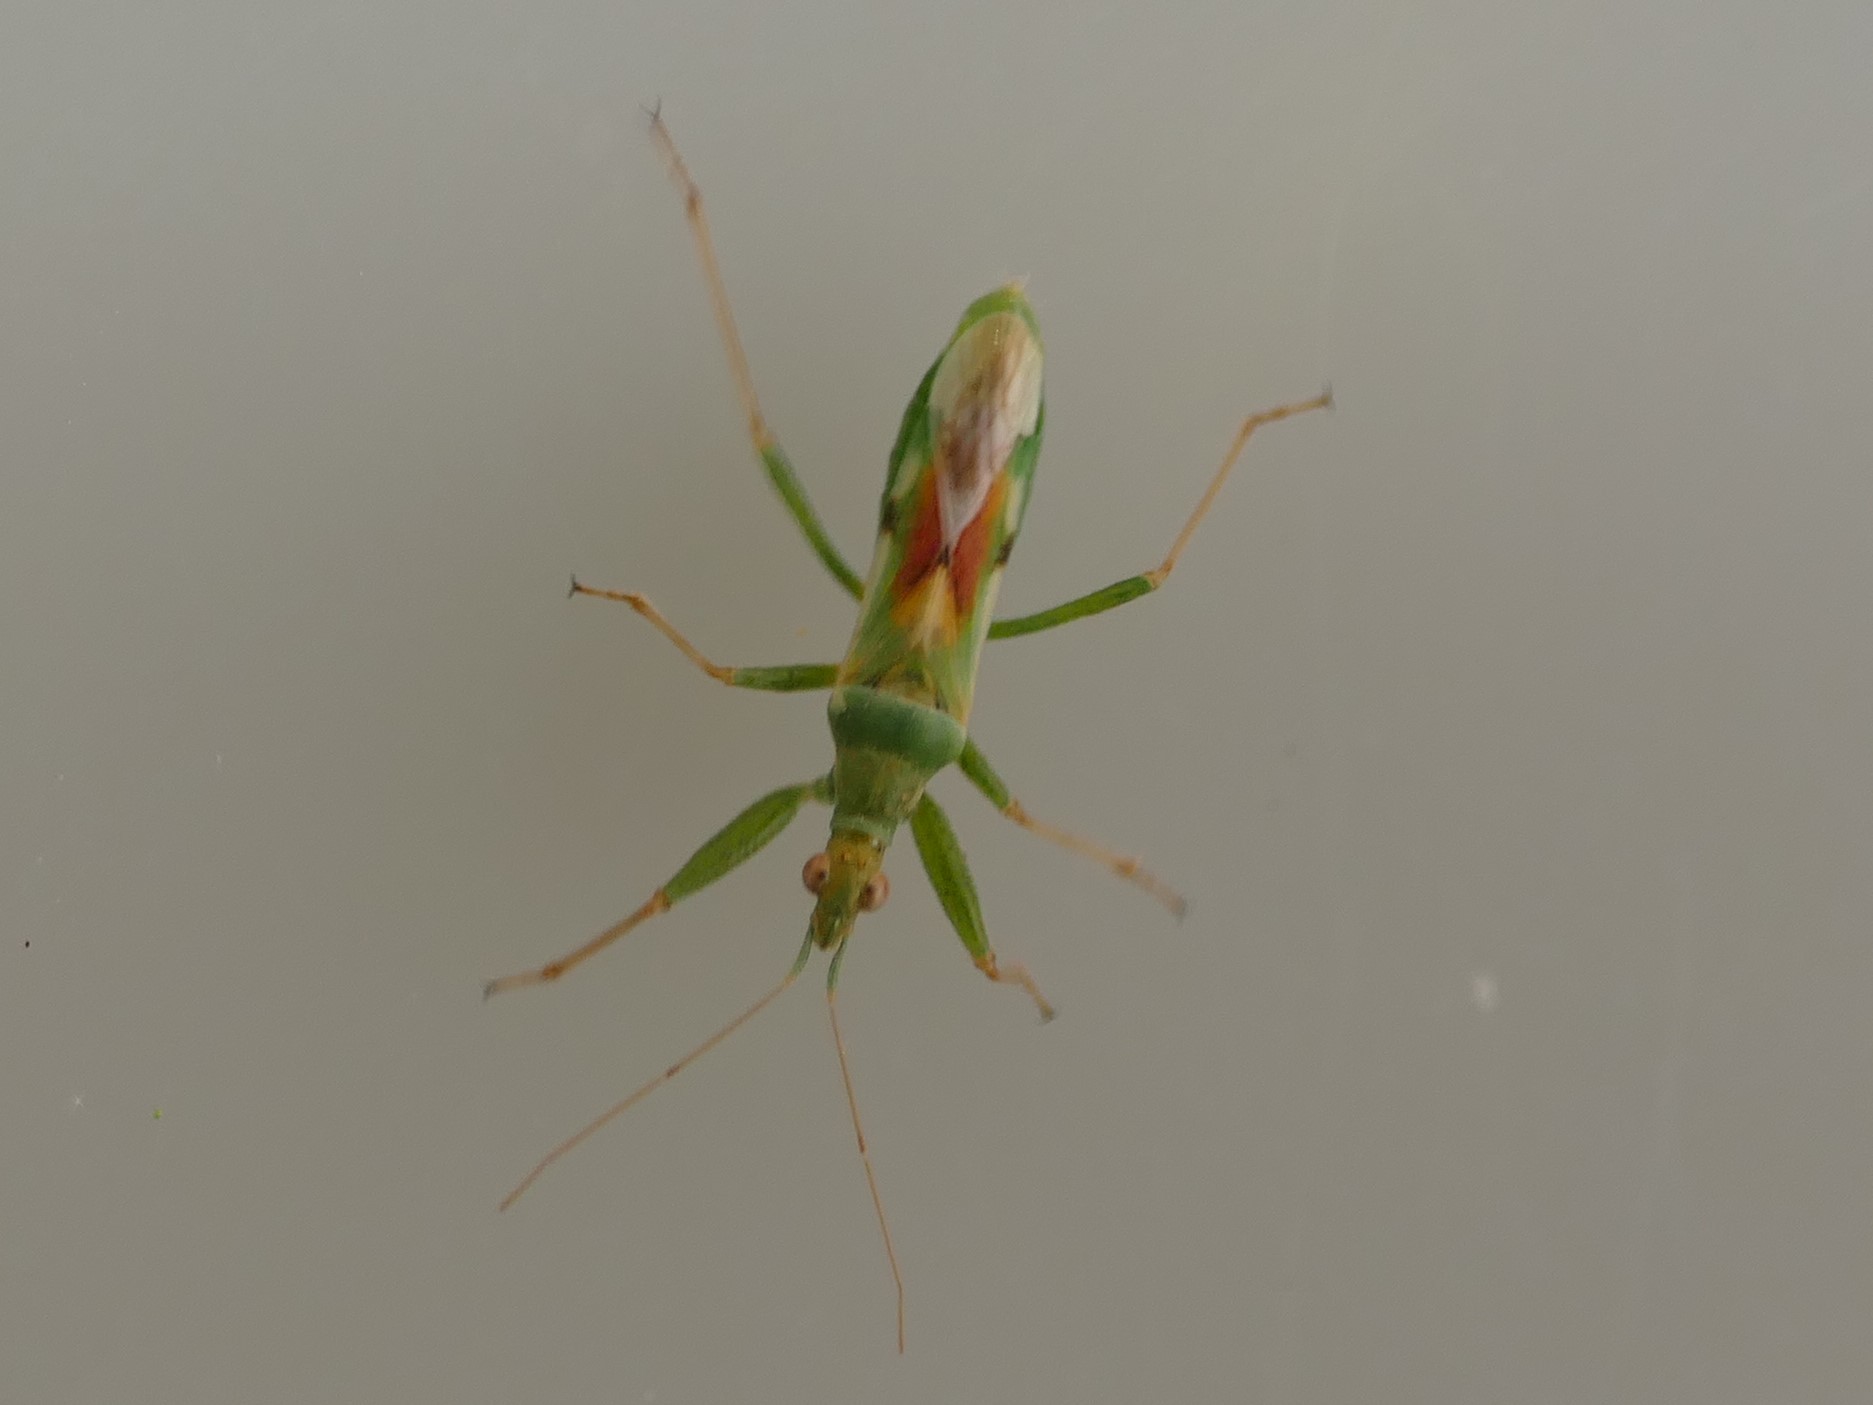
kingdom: Animalia
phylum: Arthropoda
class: Insecta
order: Hemiptera
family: Nabidae
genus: Nabis
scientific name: Nabis viridulus
